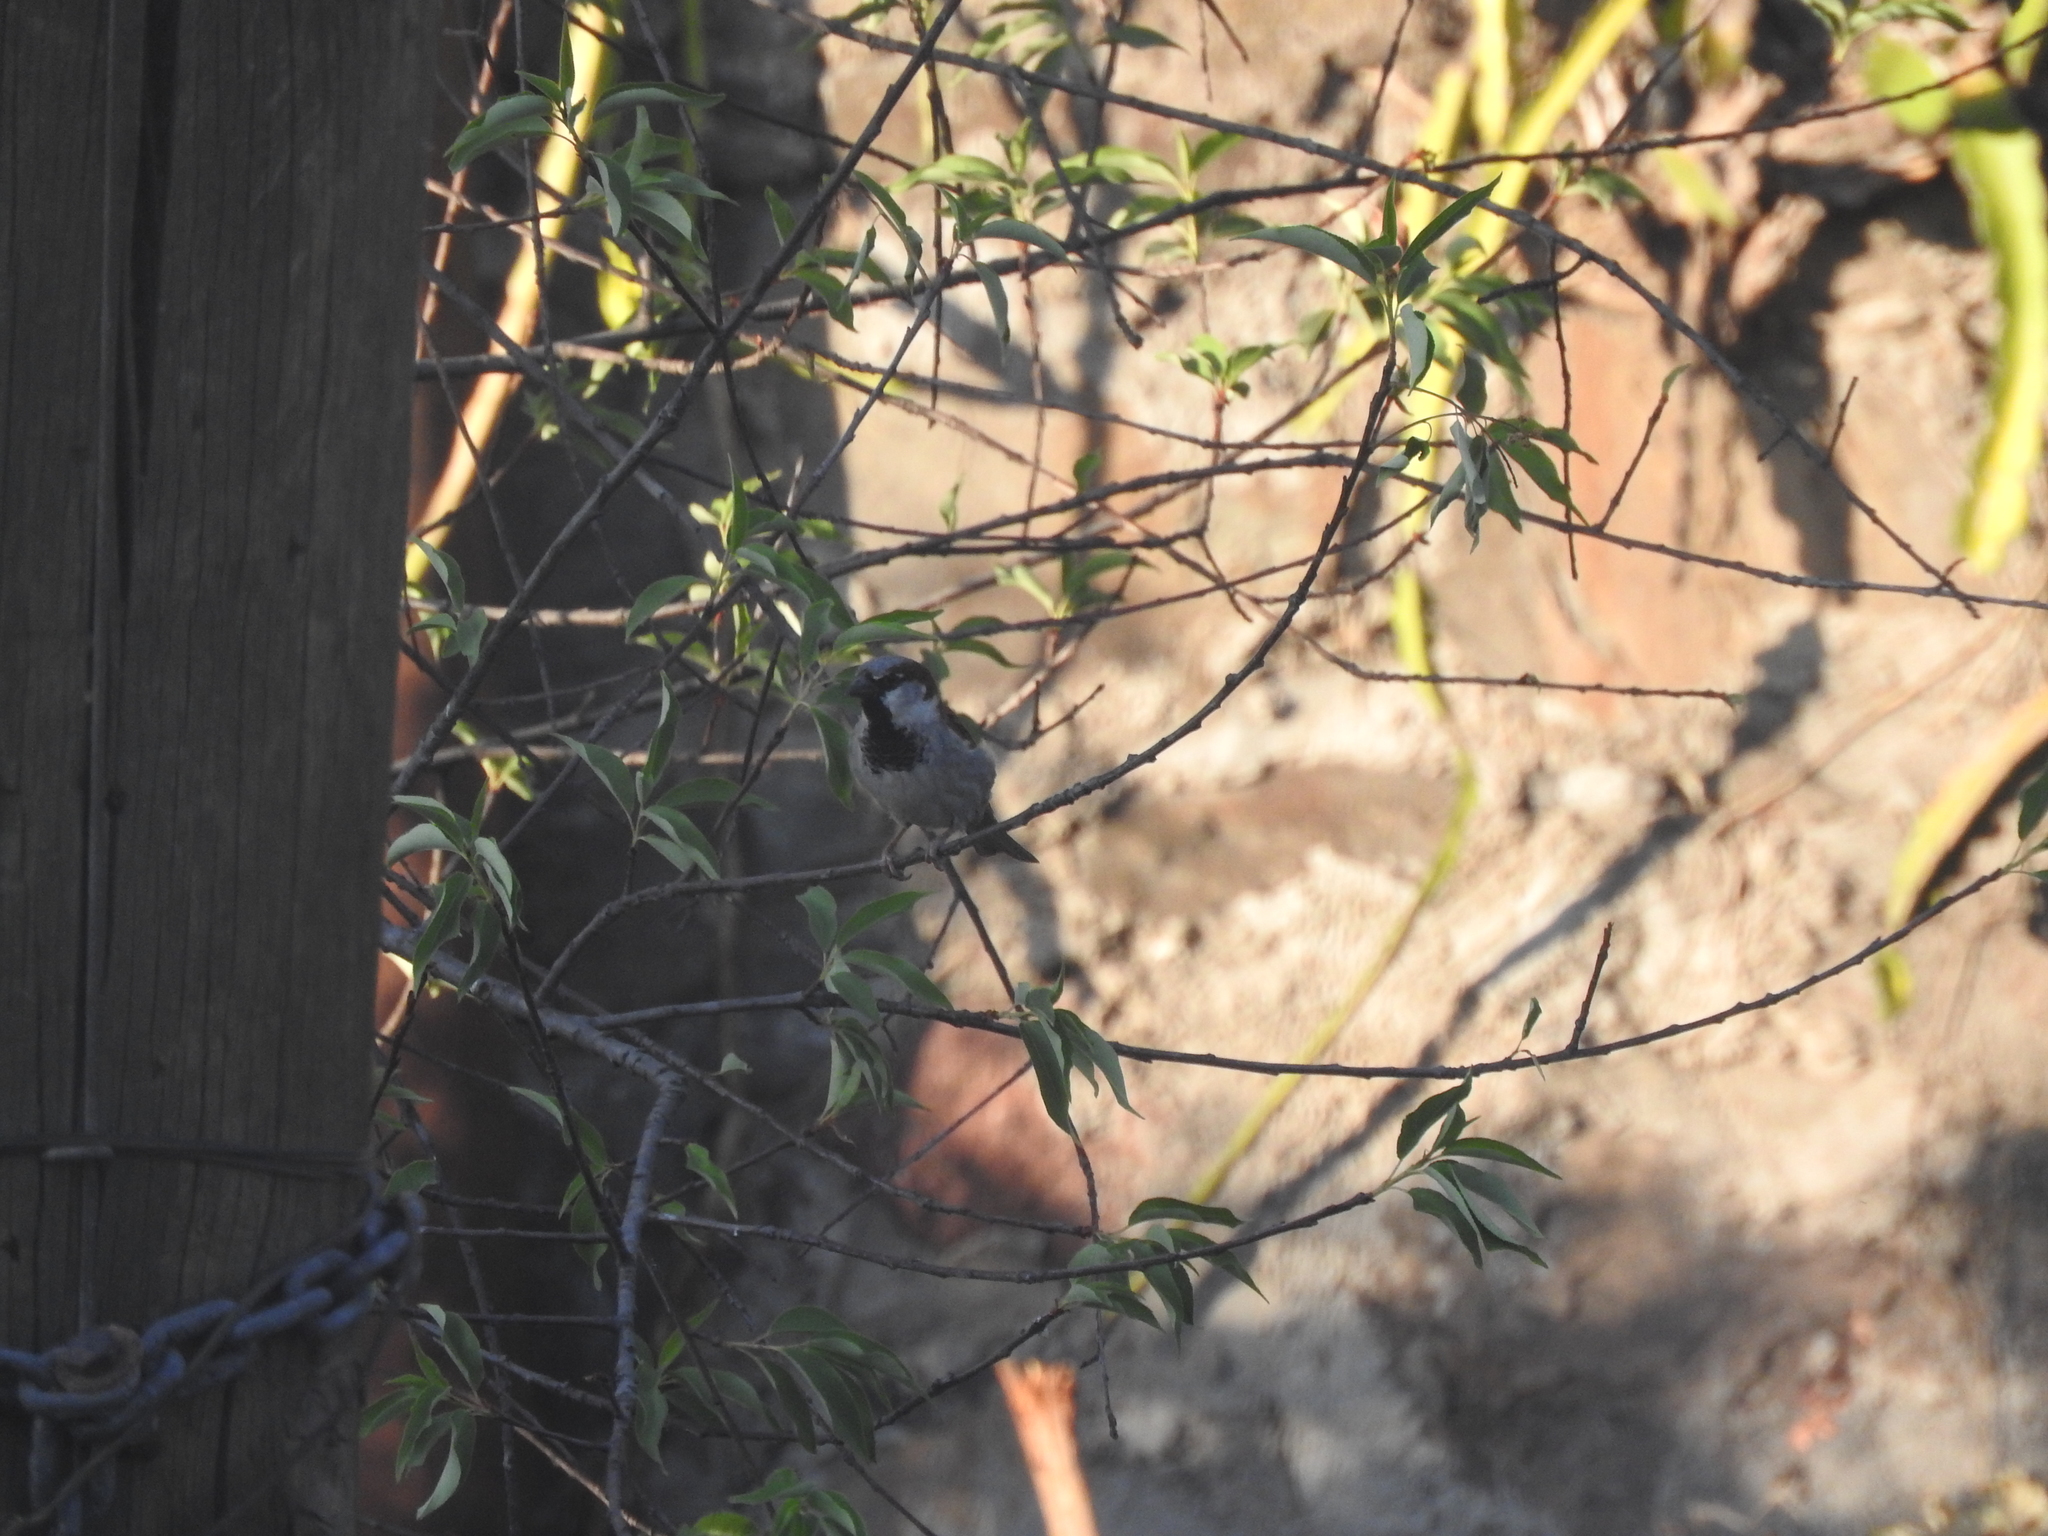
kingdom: Animalia
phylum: Chordata
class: Aves
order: Passeriformes
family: Passeridae
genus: Passer
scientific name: Passer domesticus
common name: House sparrow
